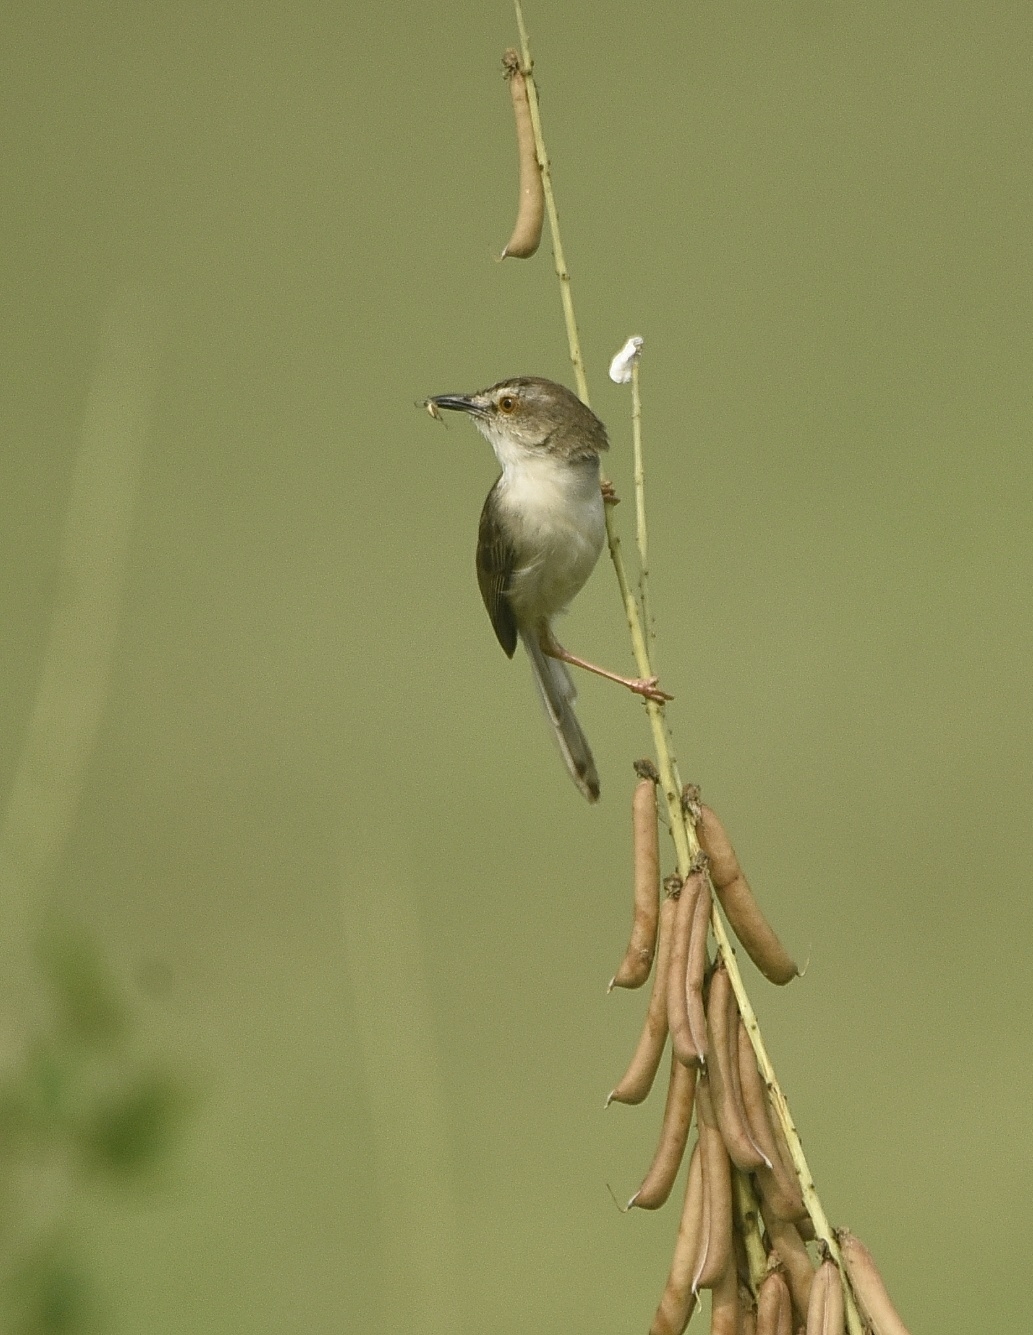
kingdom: Animalia
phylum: Chordata
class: Aves
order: Passeriformes
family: Cisticolidae
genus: Prinia
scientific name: Prinia inornata
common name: Plain prinia
